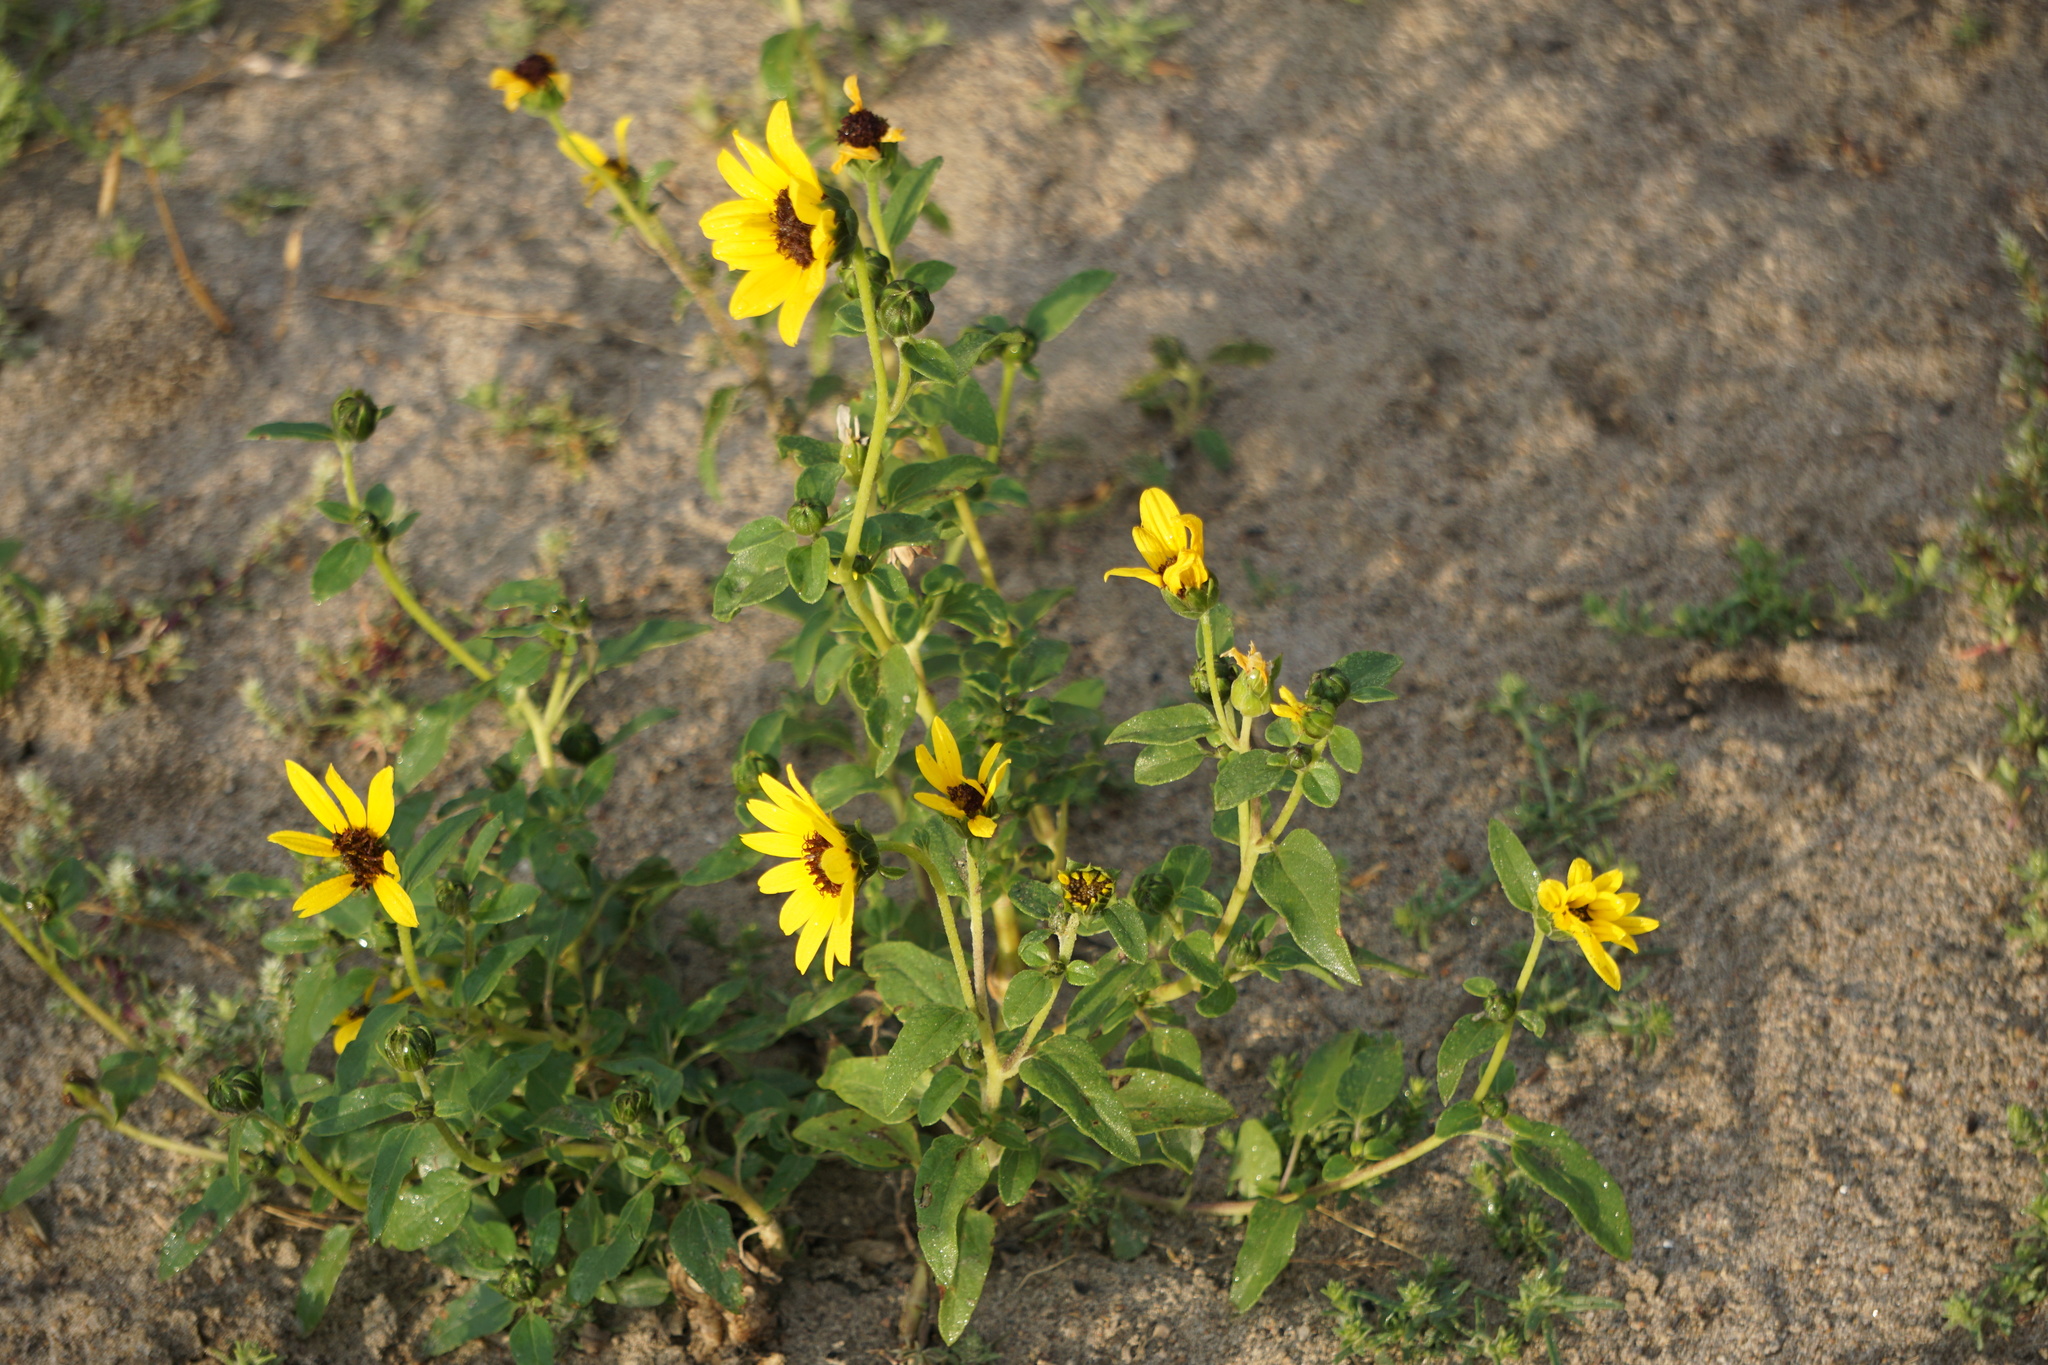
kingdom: Plantae
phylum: Tracheophyta
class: Magnoliopsida
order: Asterales
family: Asteraceae
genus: Helianthus
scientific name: Helianthus petiolaris
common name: Lesser sunflower
